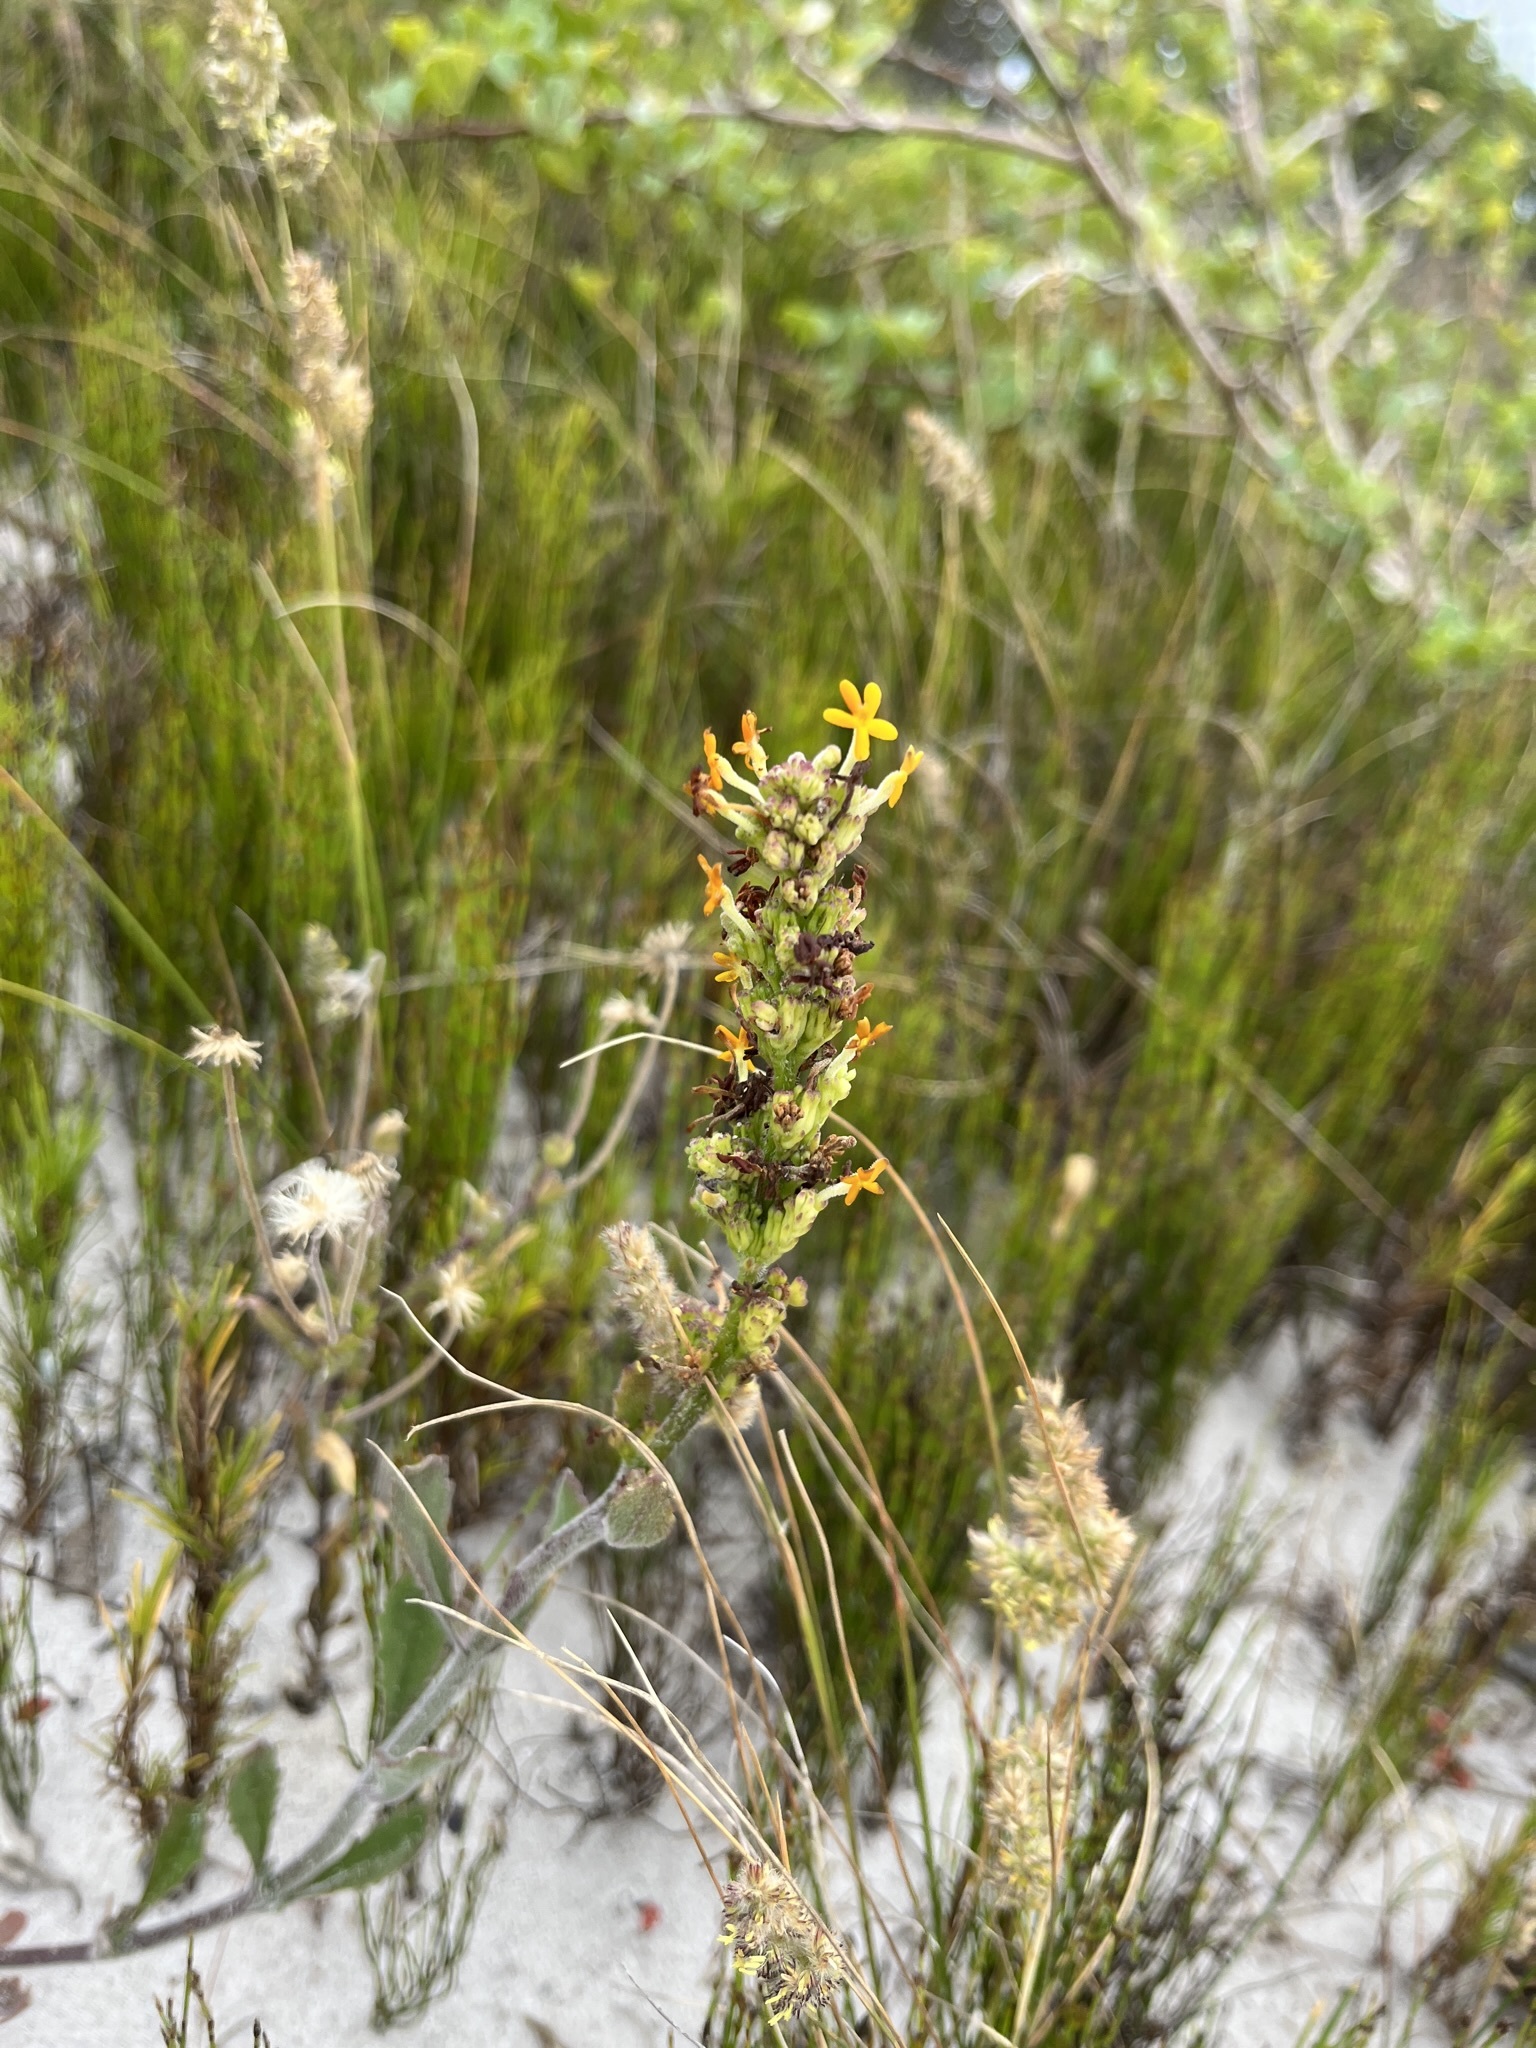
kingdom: Plantae
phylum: Tracheophyta
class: Magnoliopsida
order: Lamiales
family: Scrophulariaceae
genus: Manulea
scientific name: Manulea rubra
